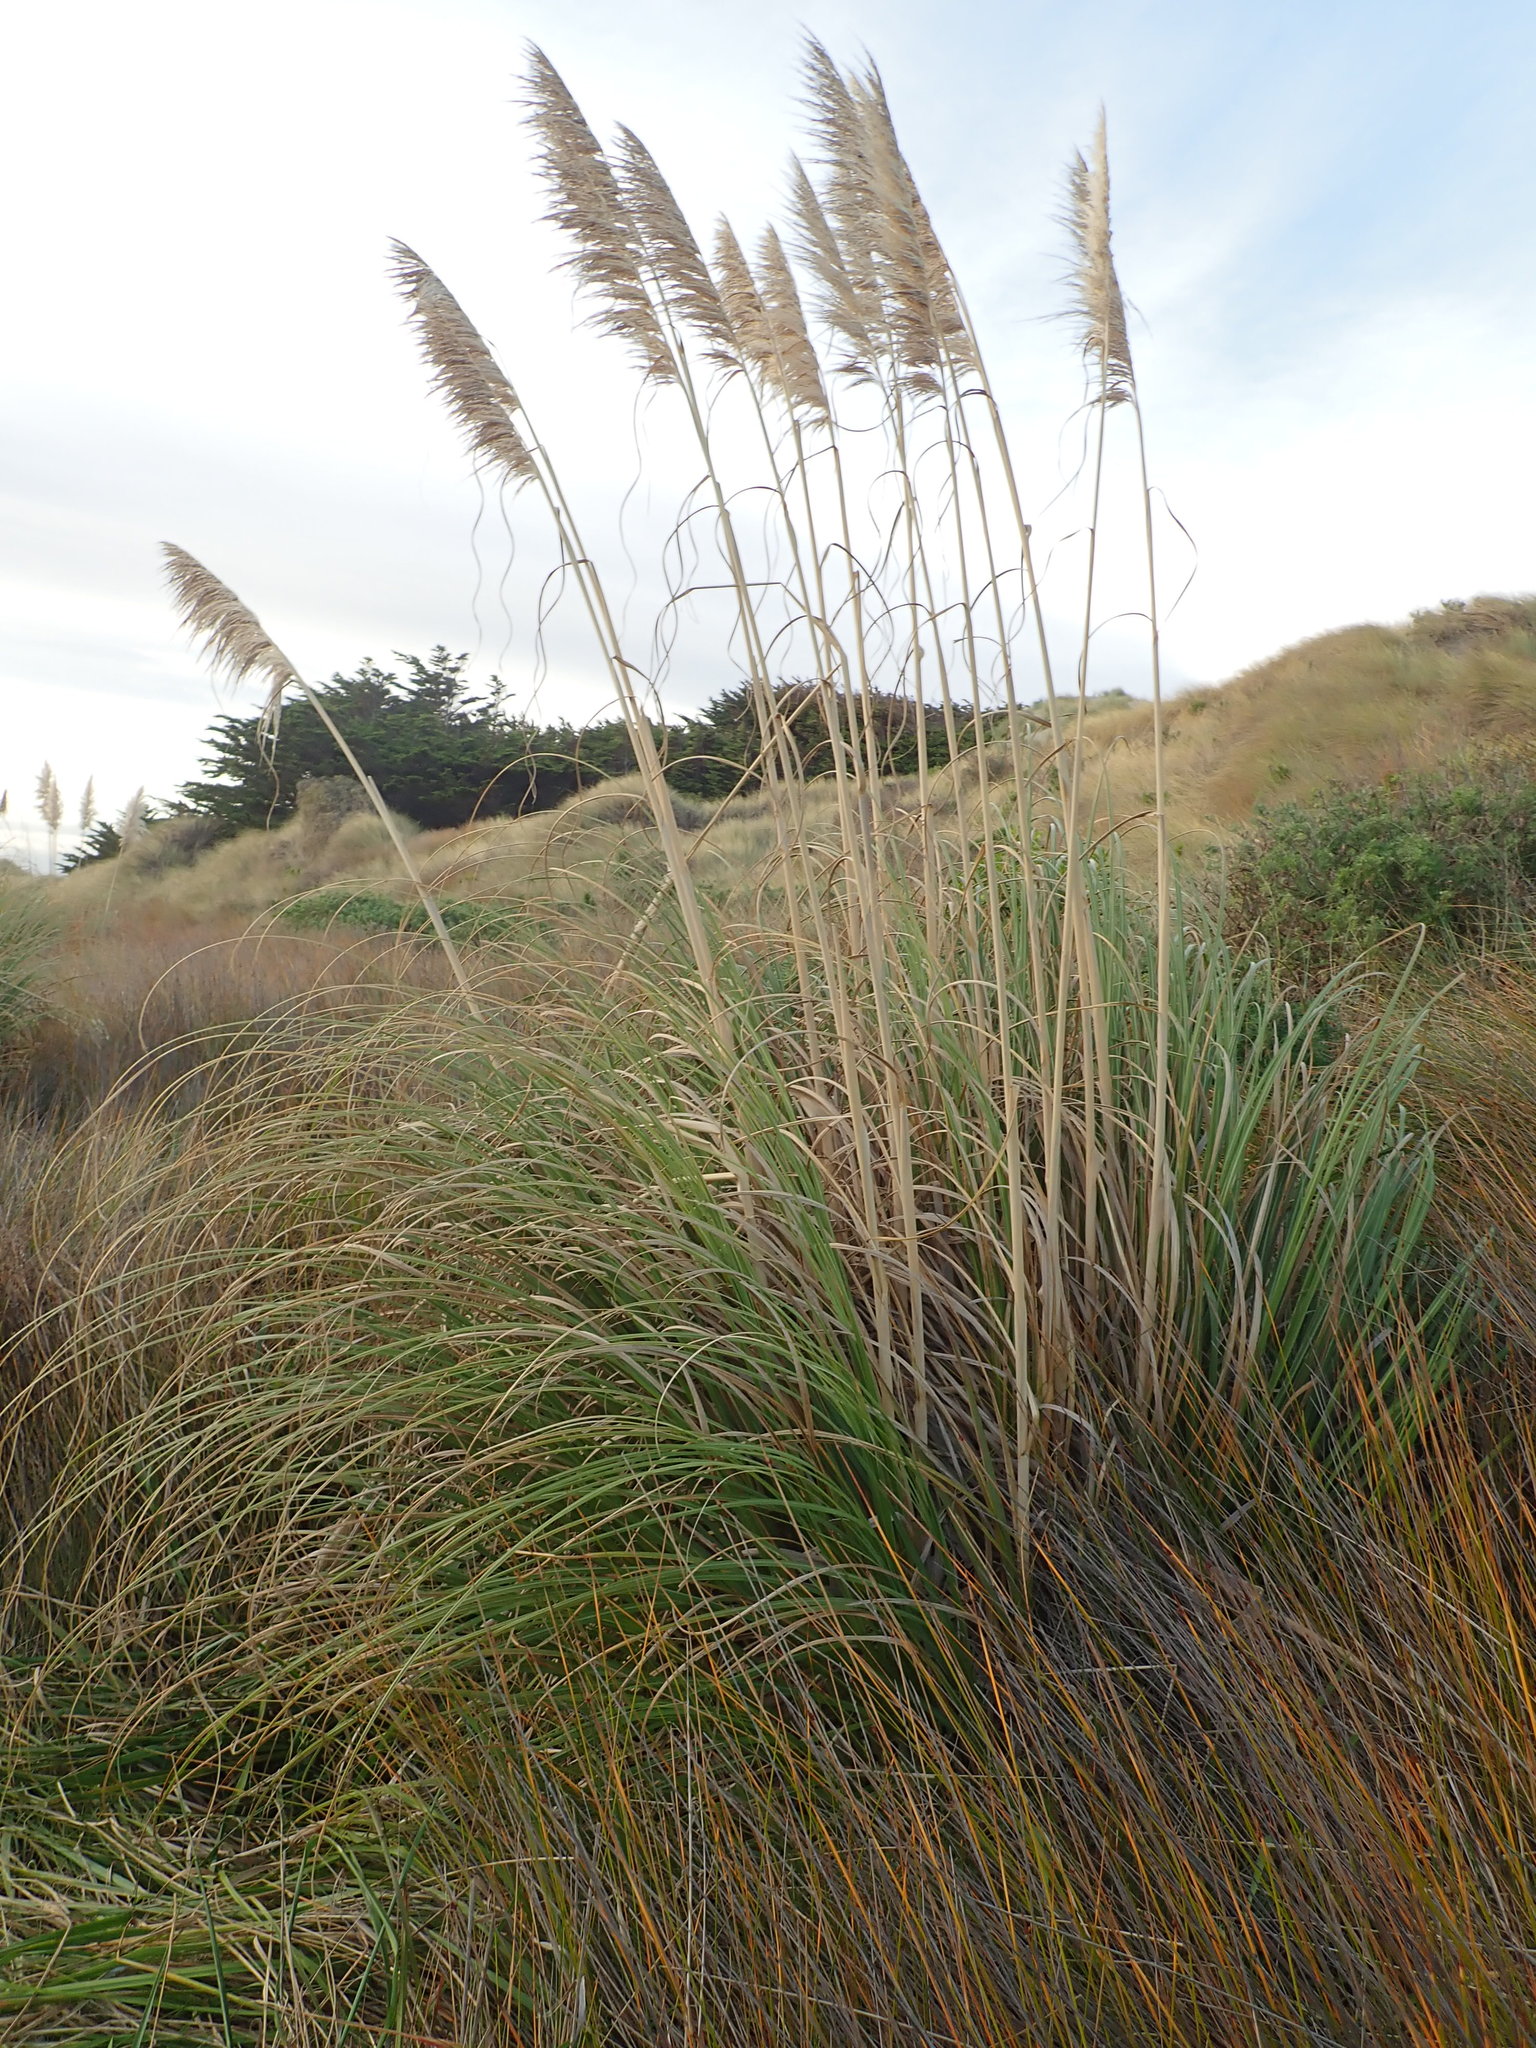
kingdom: Plantae
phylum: Tracheophyta
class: Liliopsida
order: Poales
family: Poaceae
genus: Cortaderia
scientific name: Cortaderia selloana
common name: Uruguayan pampas grass
